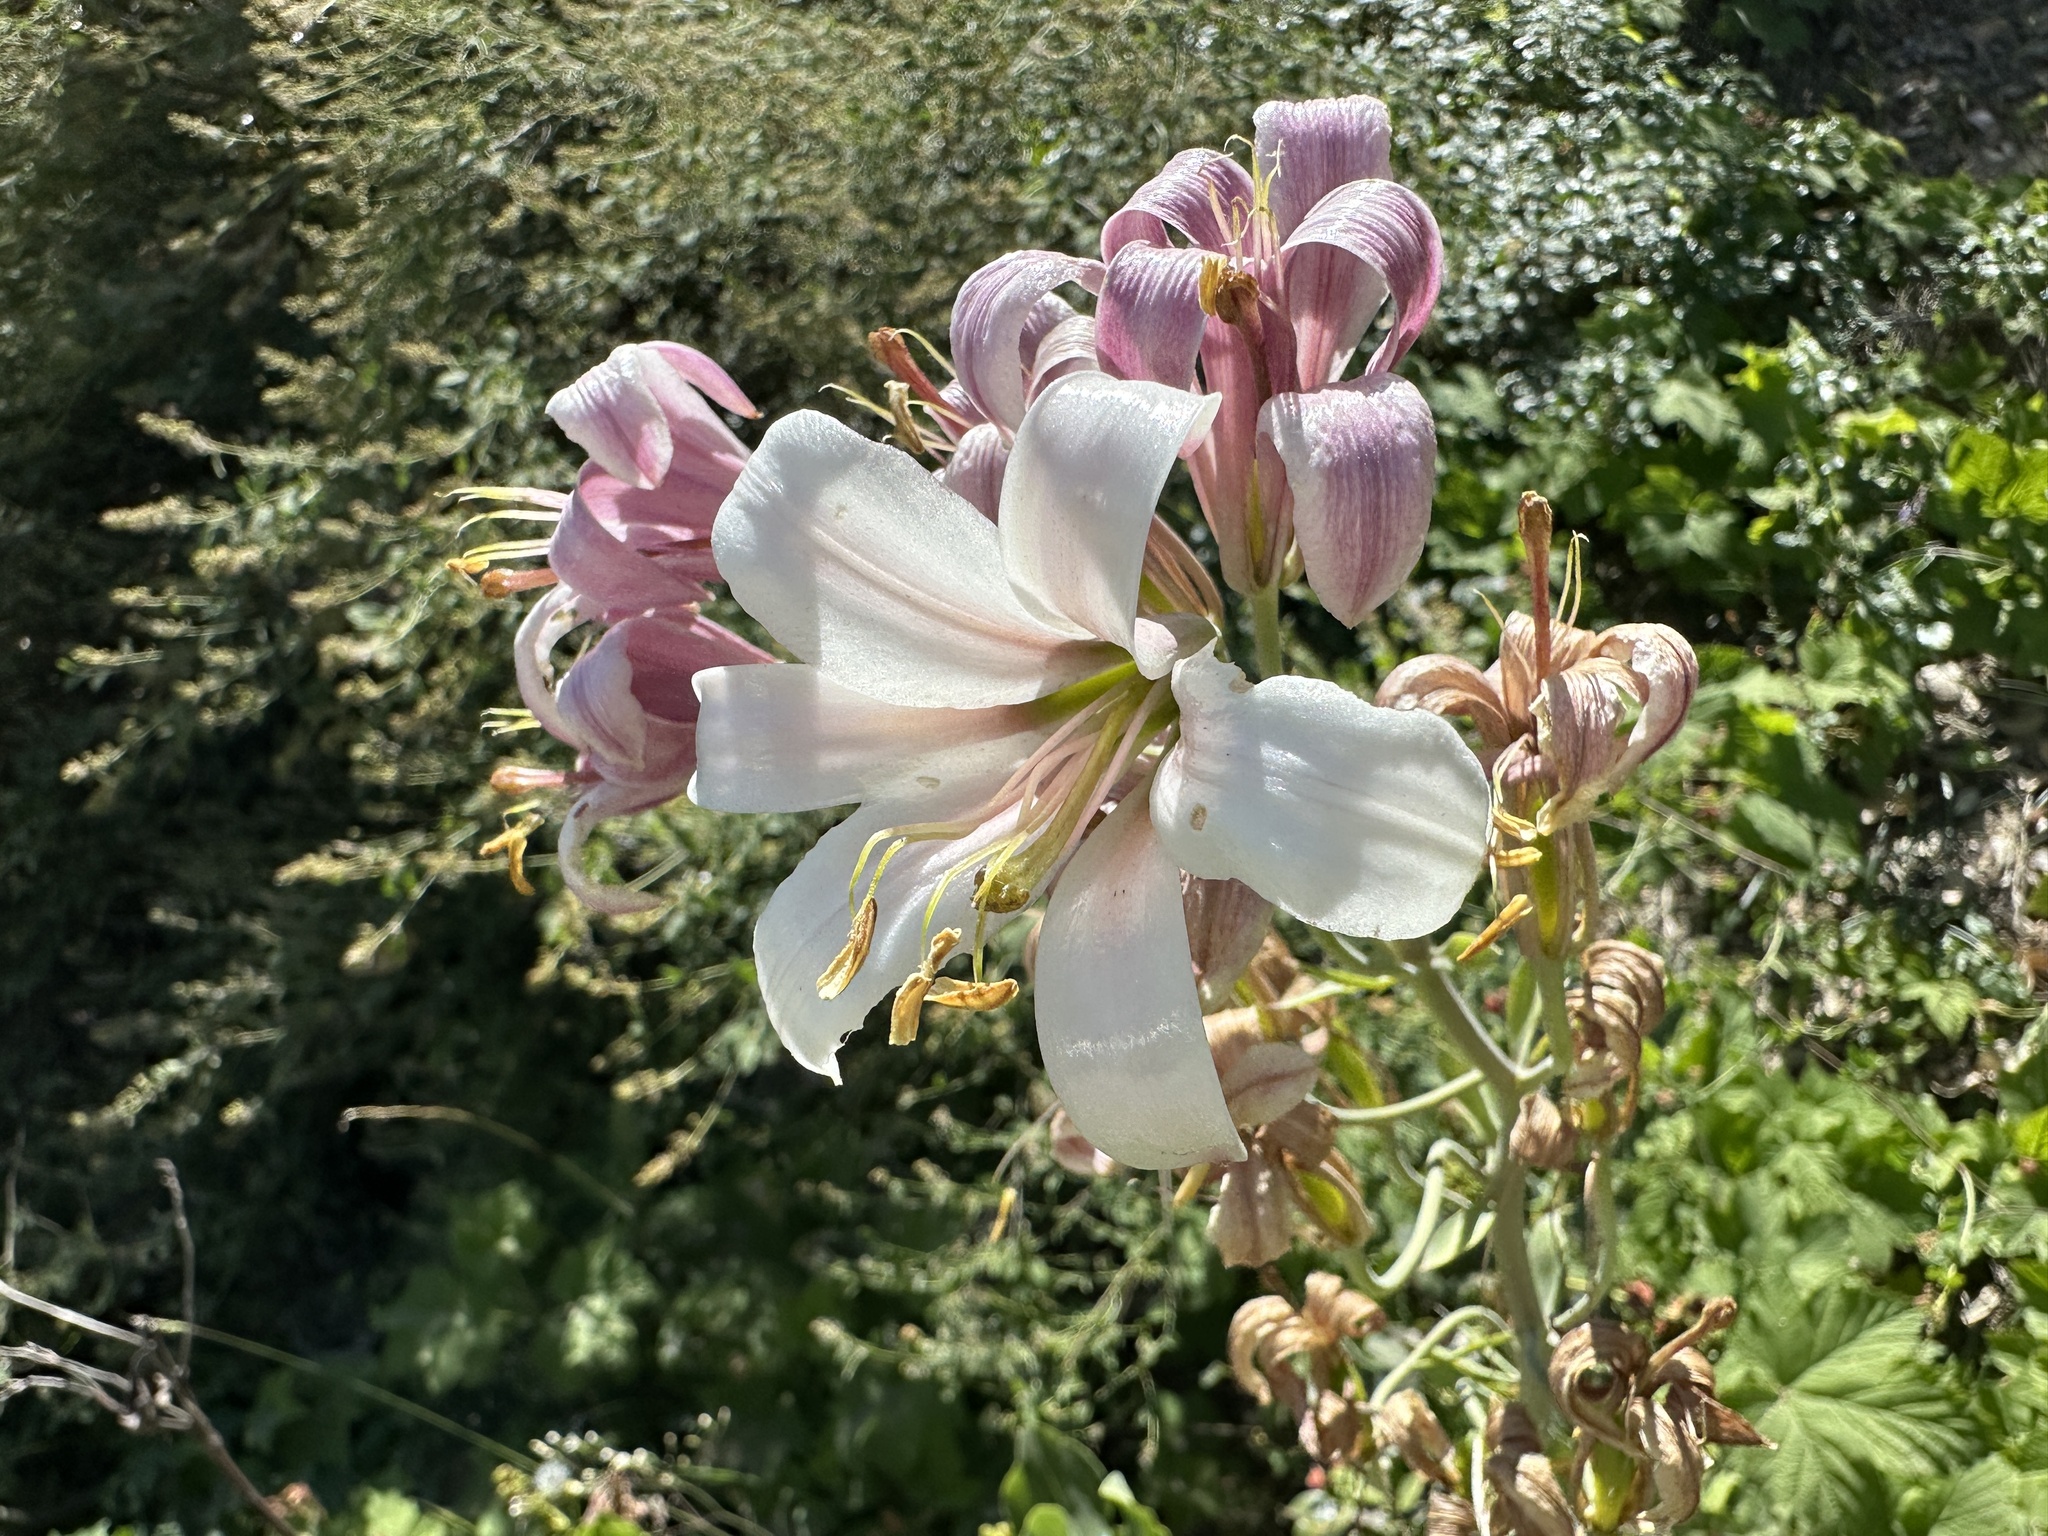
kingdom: Plantae
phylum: Tracheophyta
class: Liliopsida
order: Liliales
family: Liliaceae
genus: Lilium
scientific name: Lilium washingtonianum
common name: Washington lily
